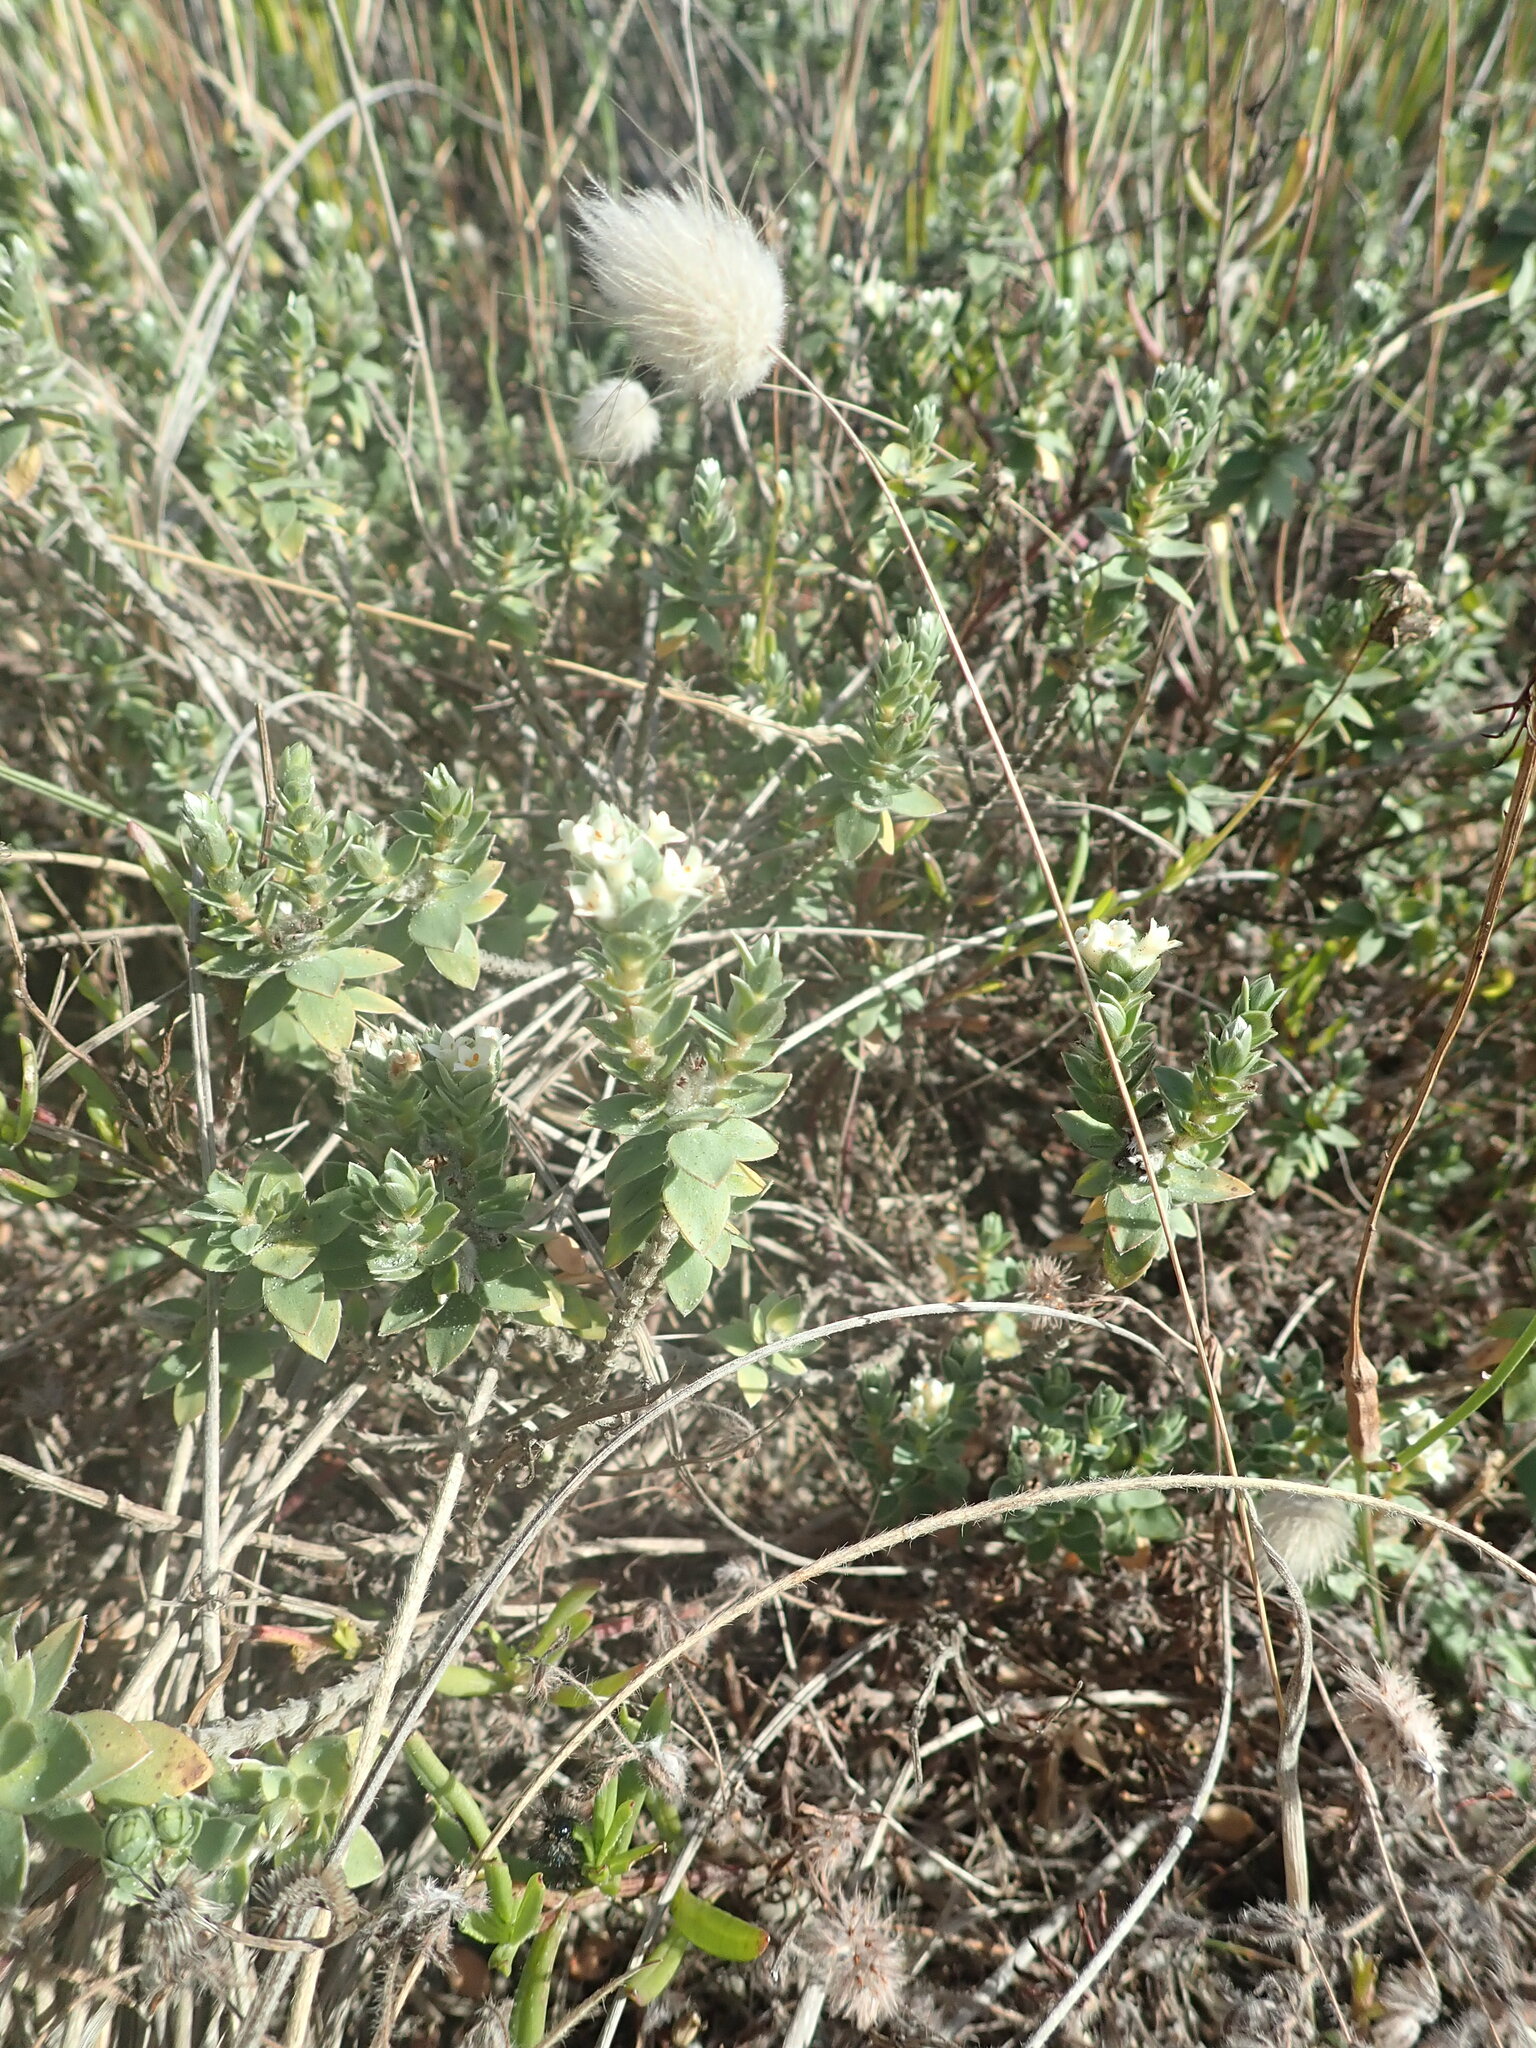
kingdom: Plantae
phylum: Tracheophyta
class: Magnoliopsida
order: Malvales
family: Thymelaeaceae
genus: Pimelea
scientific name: Pimelea villosa
